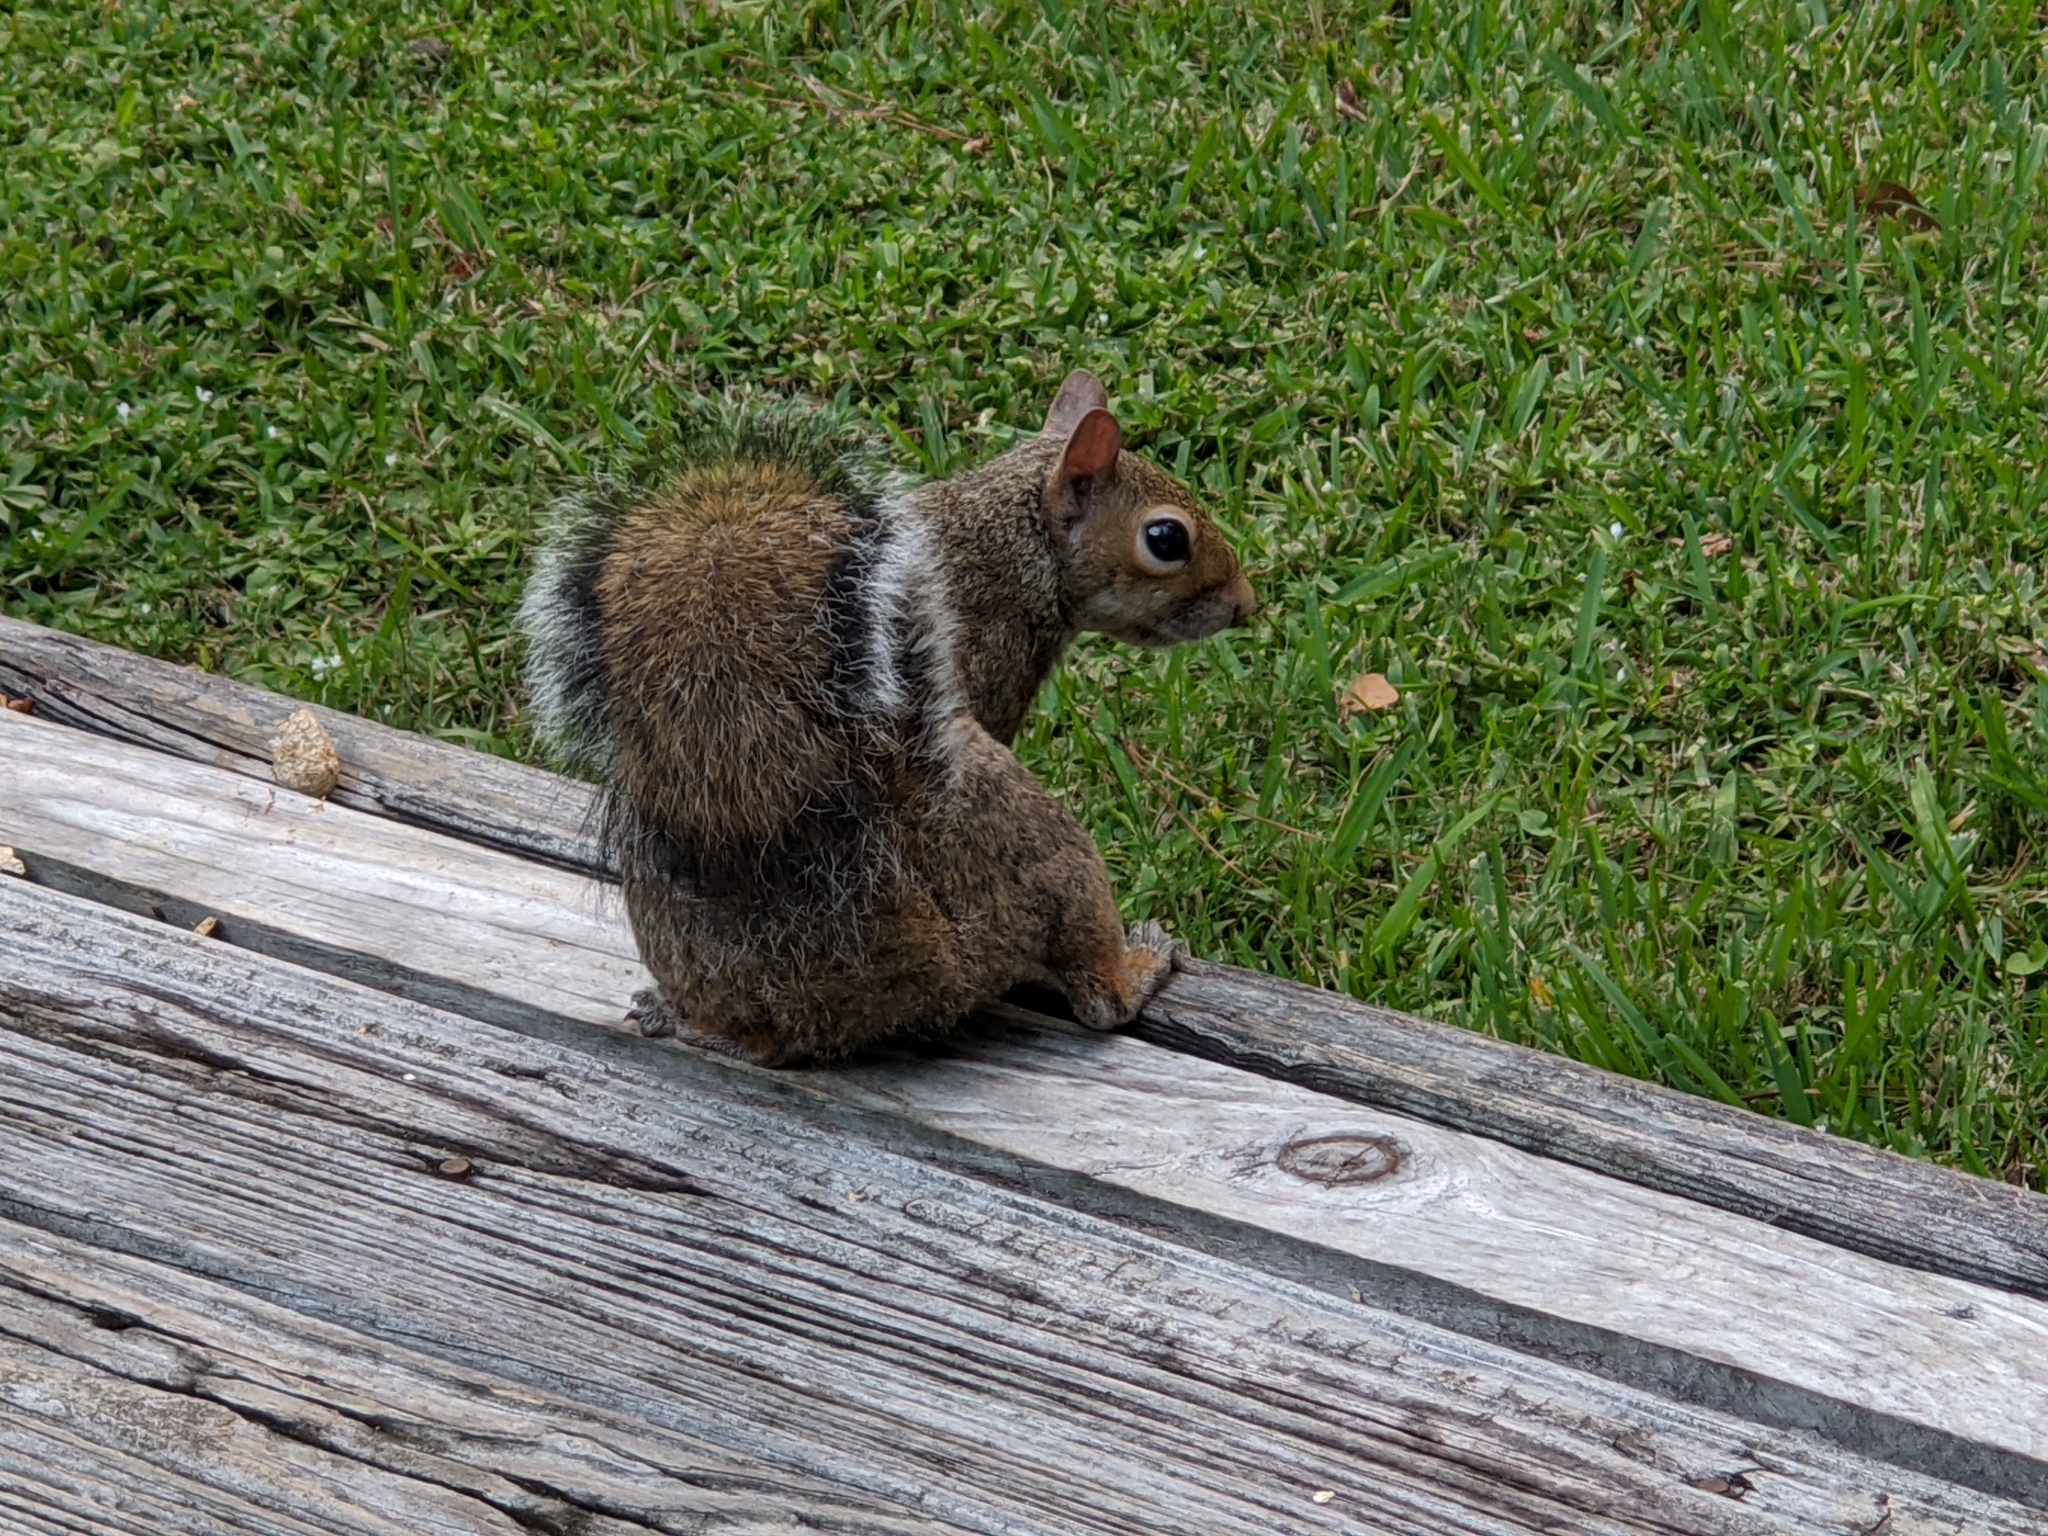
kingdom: Animalia
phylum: Chordata
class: Mammalia
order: Rodentia
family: Sciuridae
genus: Sciurus
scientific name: Sciurus carolinensis
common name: Eastern gray squirrel
